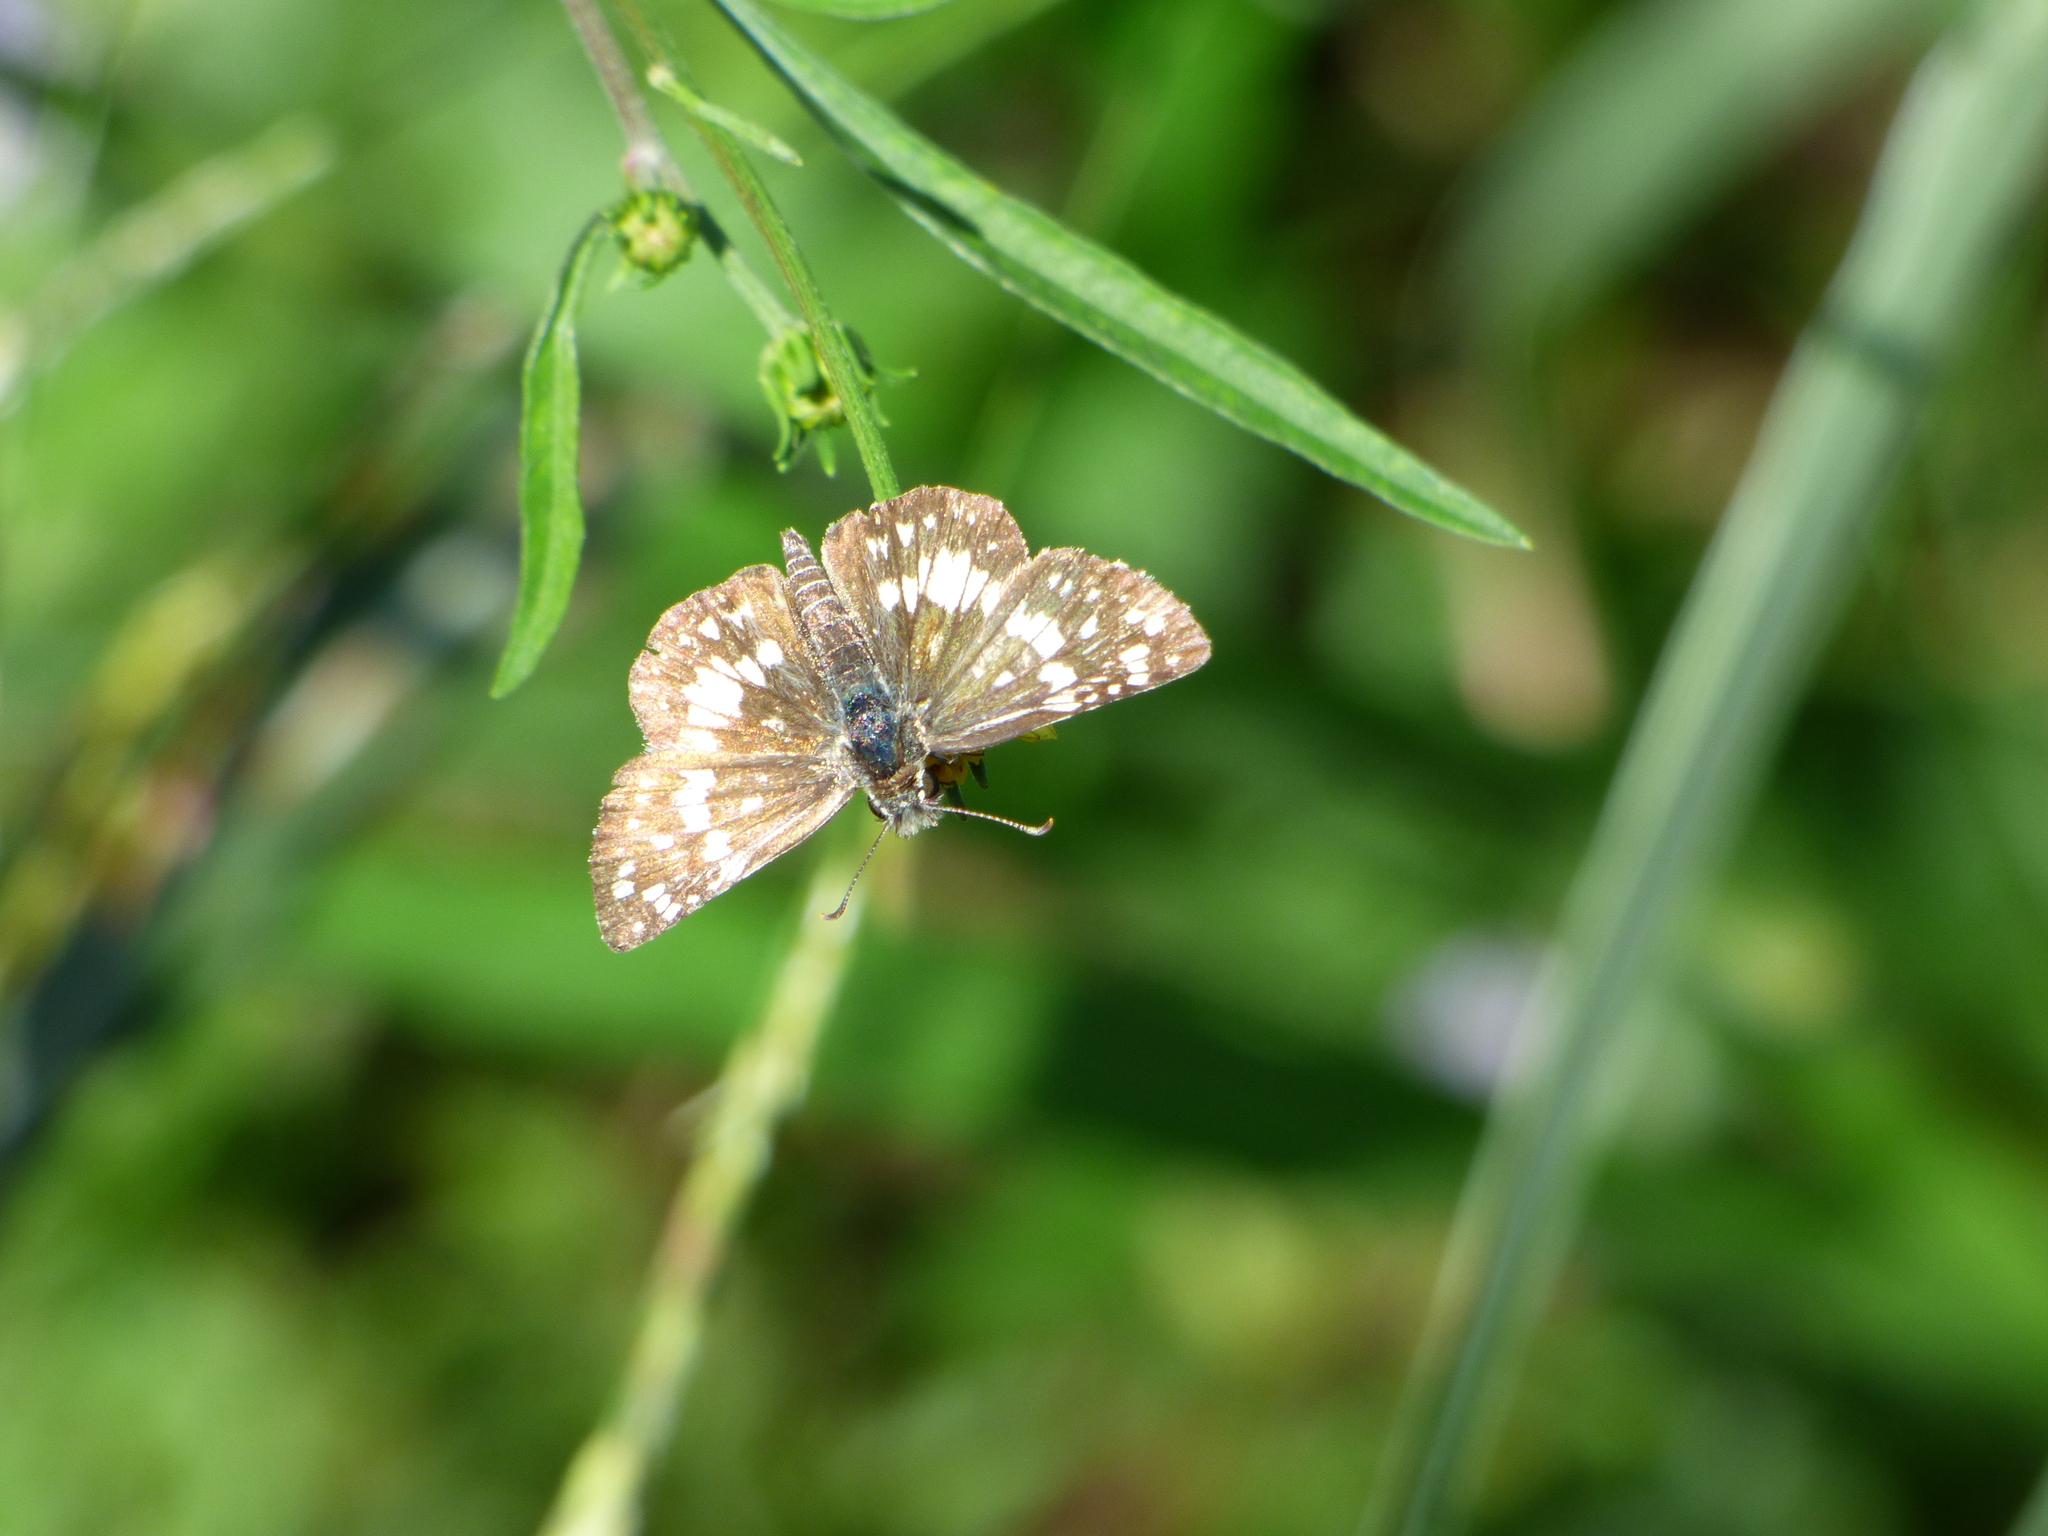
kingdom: Animalia
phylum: Arthropoda
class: Insecta
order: Lepidoptera
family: Hesperiidae
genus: Burnsius
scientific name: Burnsius orcynoides
